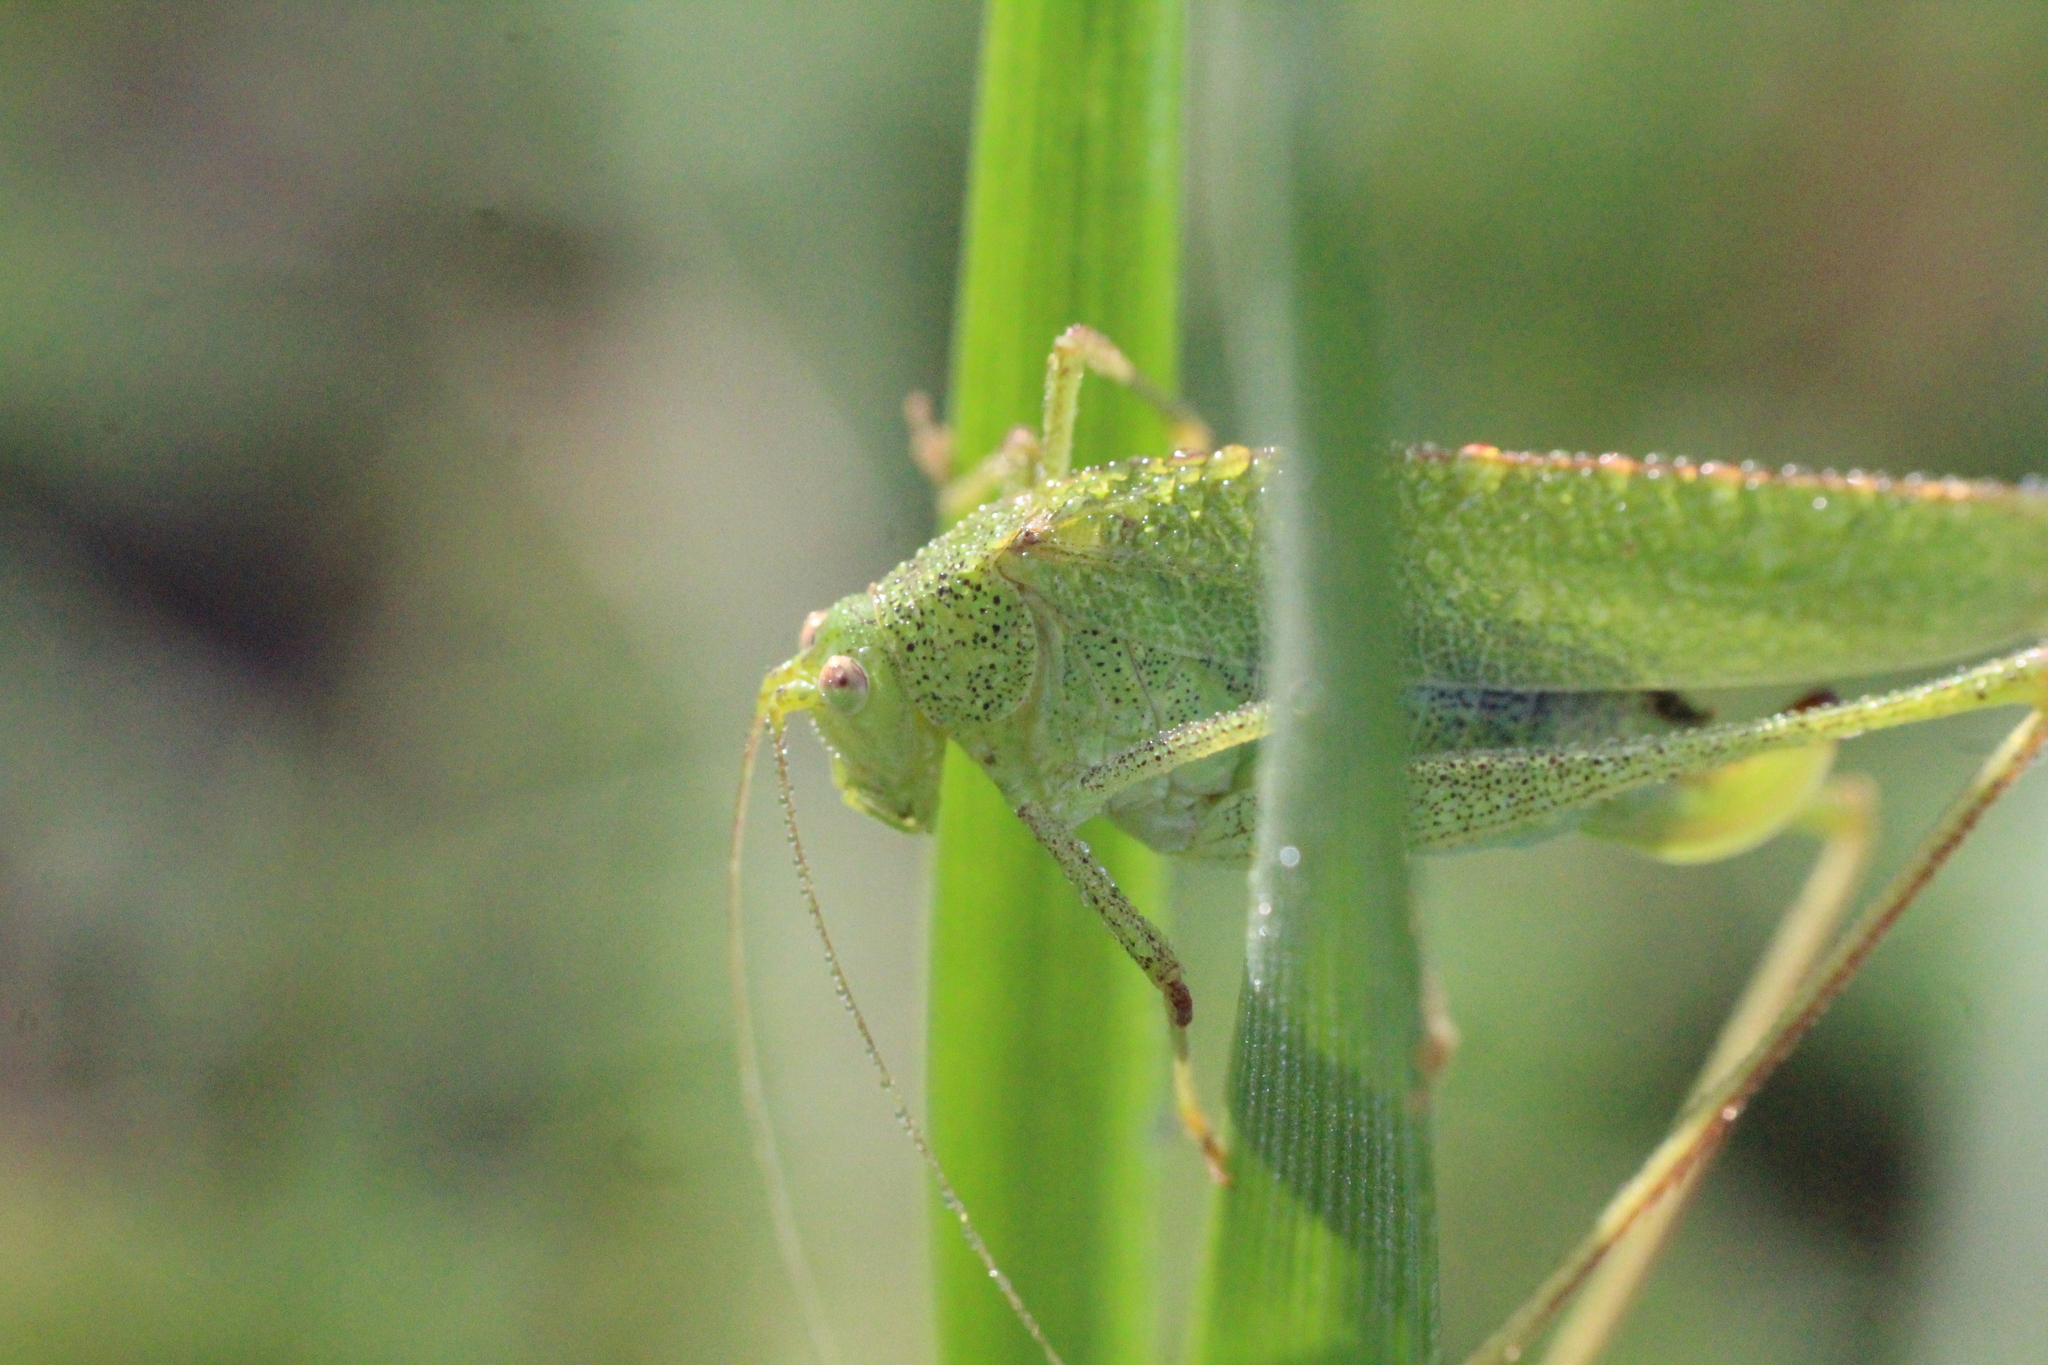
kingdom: Animalia
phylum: Arthropoda
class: Insecta
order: Orthoptera
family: Tettigoniidae
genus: Phaneroptera
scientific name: Phaneroptera nana
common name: Southern sickle bush-cricket
